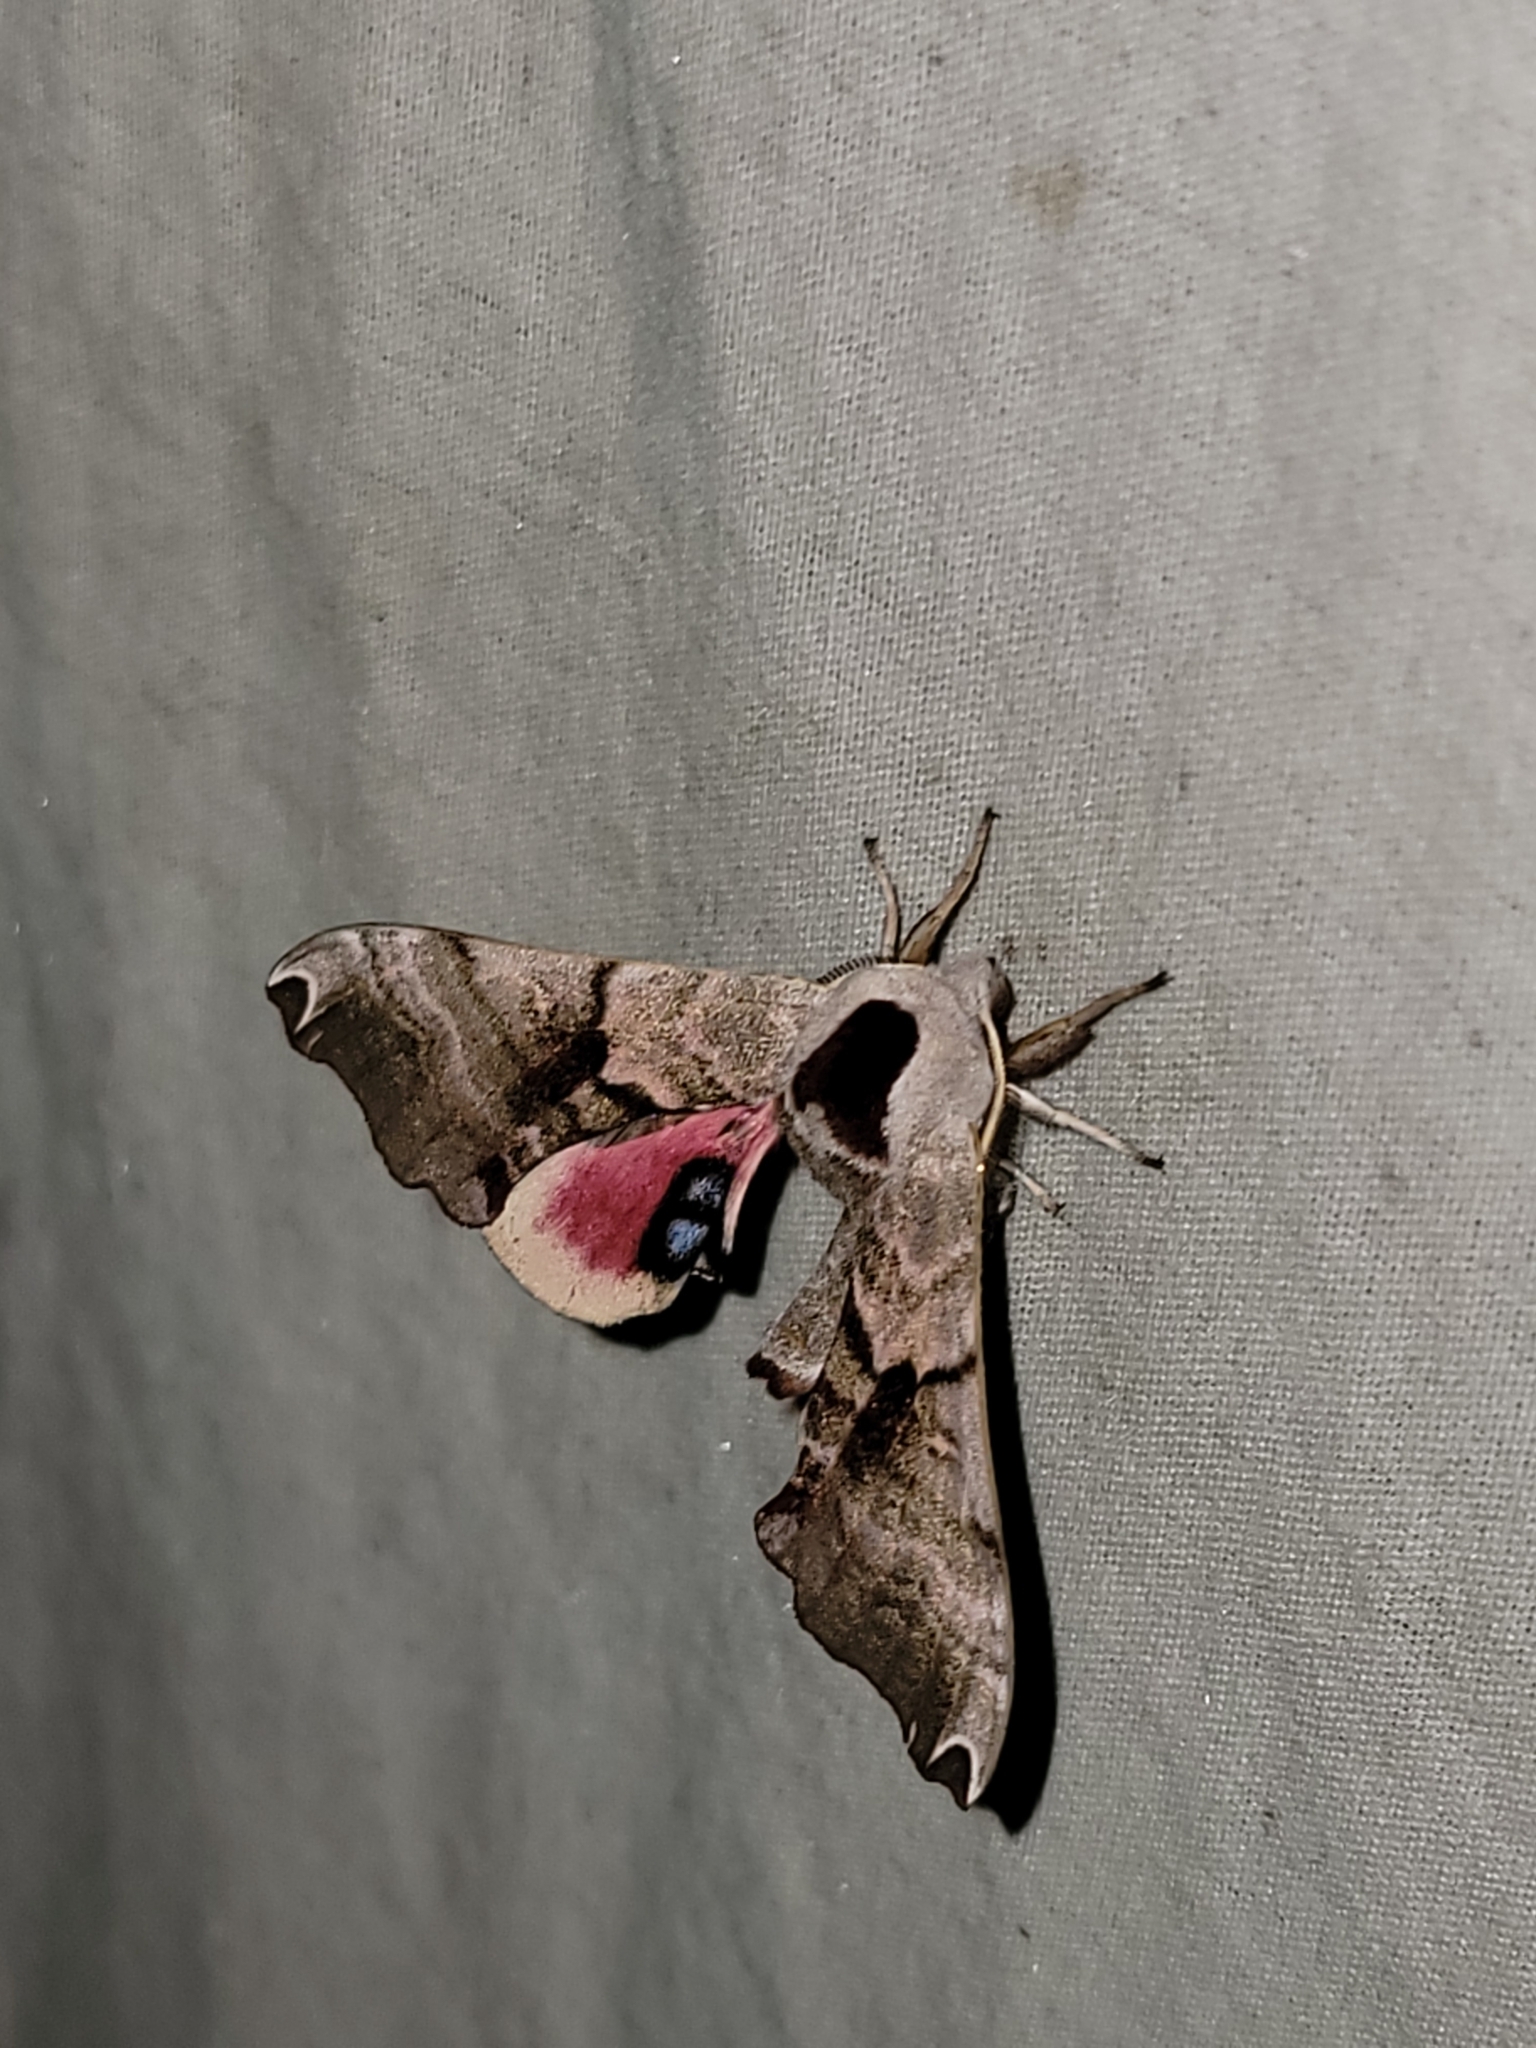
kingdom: Animalia
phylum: Arthropoda
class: Insecta
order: Lepidoptera
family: Sphingidae
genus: Smerinthus
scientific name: Smerinthus jamaicensis
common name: Twin spotted sphinx
